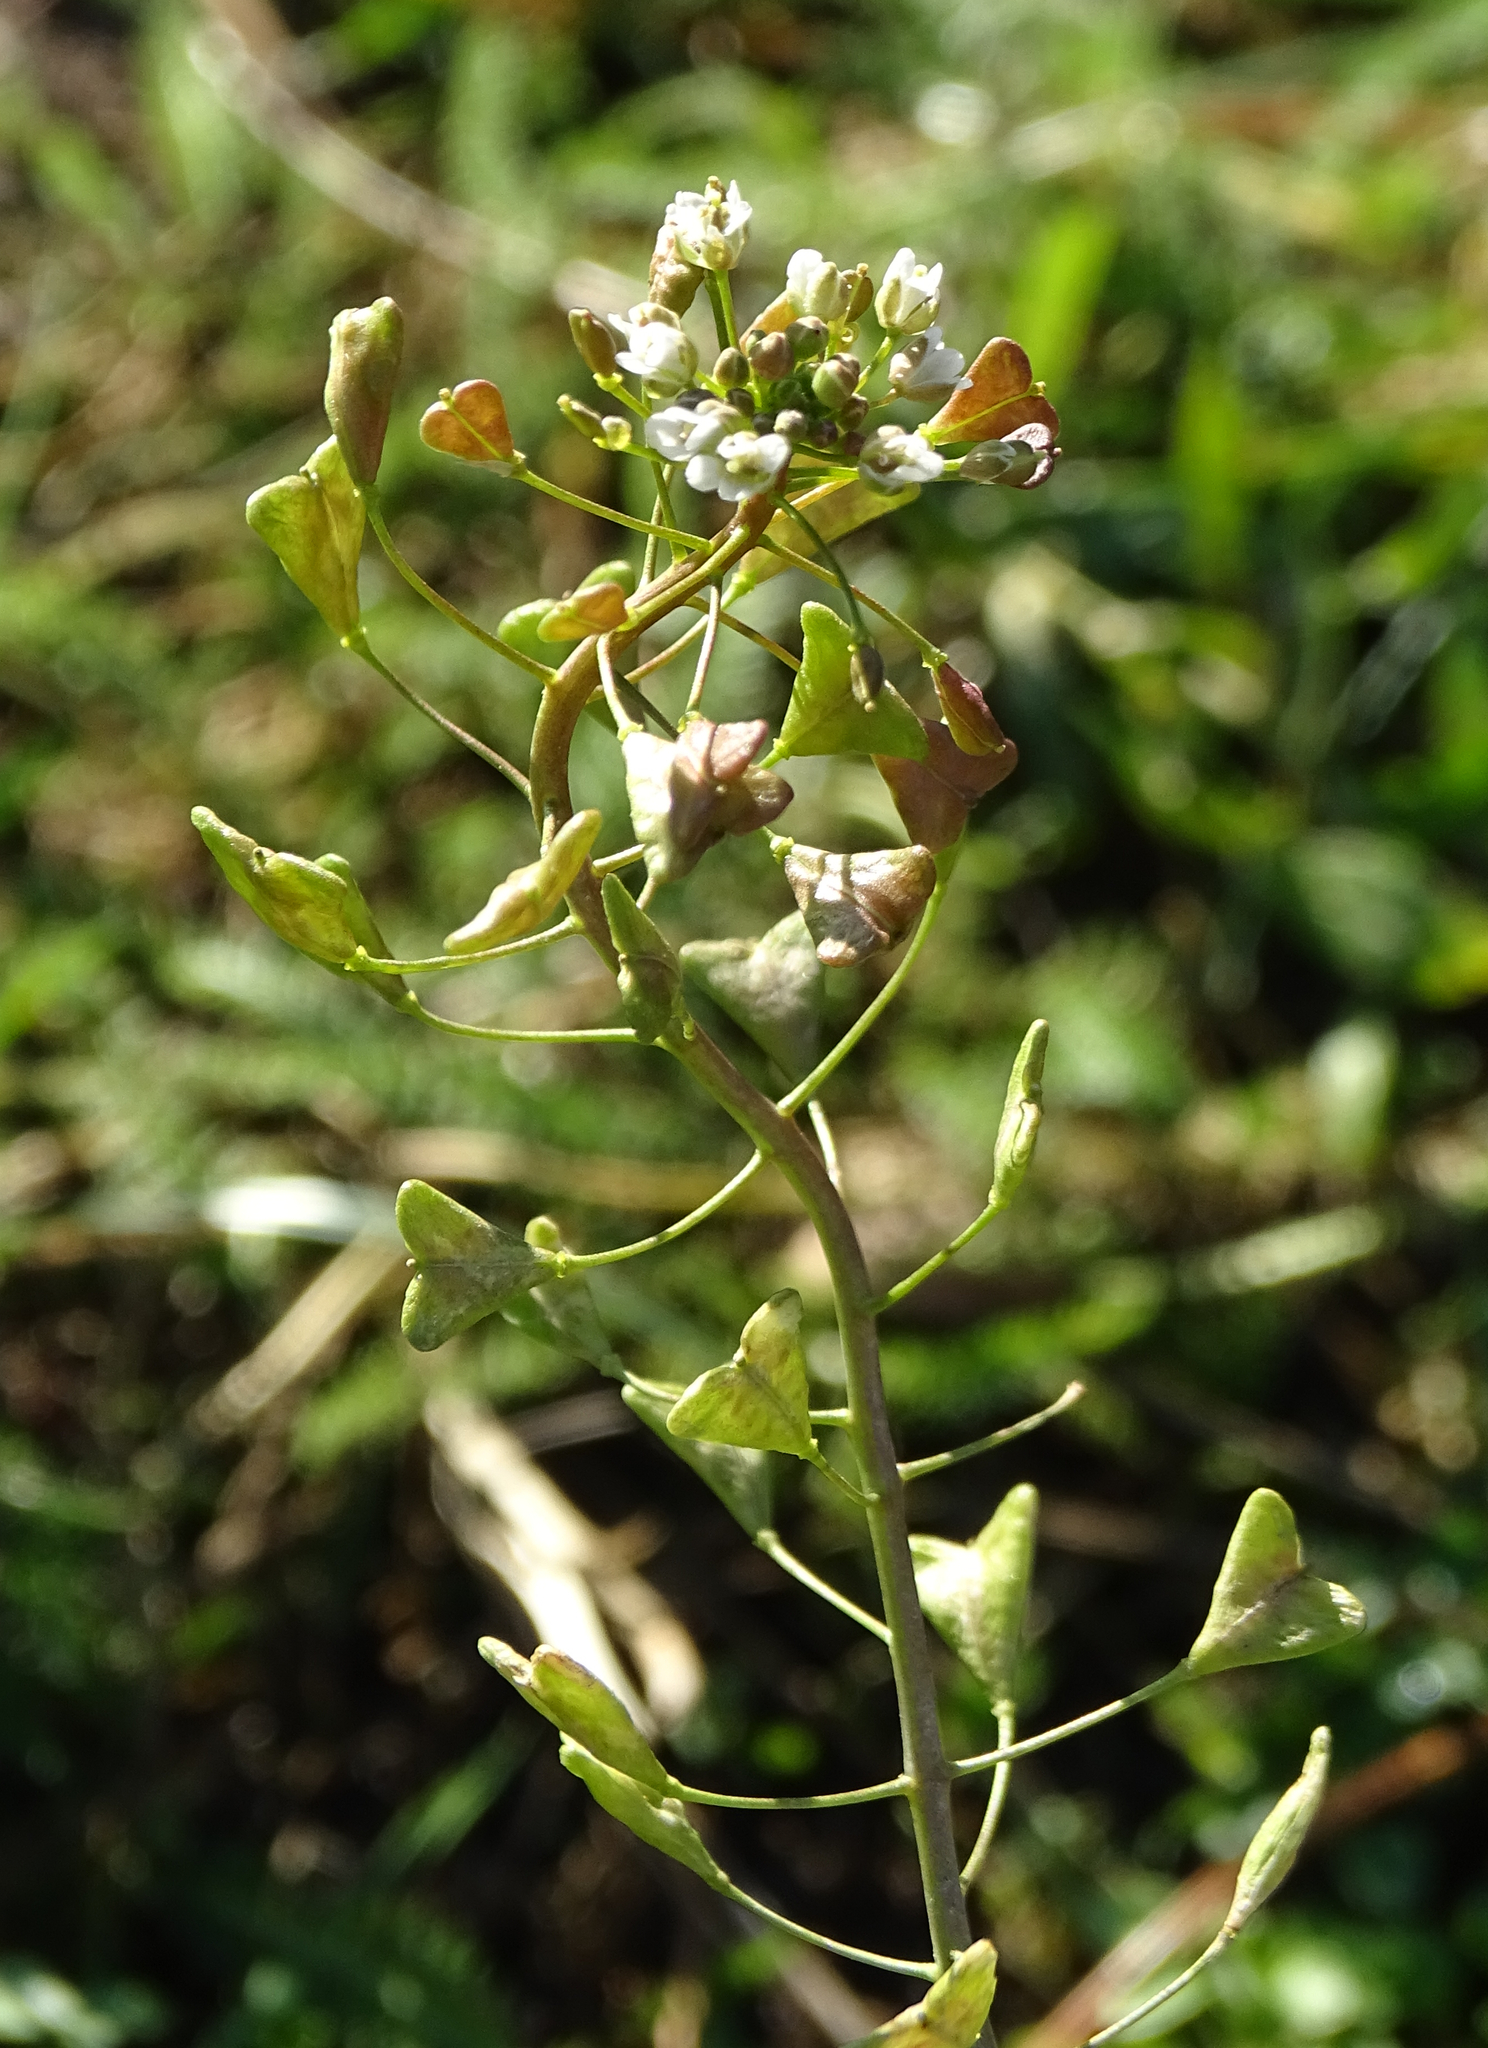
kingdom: Plantae
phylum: Tracheophyta
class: Magnoliopsida
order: Brassicales
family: Brassicaceae
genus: Capsella
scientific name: Capsella bursa-pastoris
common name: Shepherd's purse
